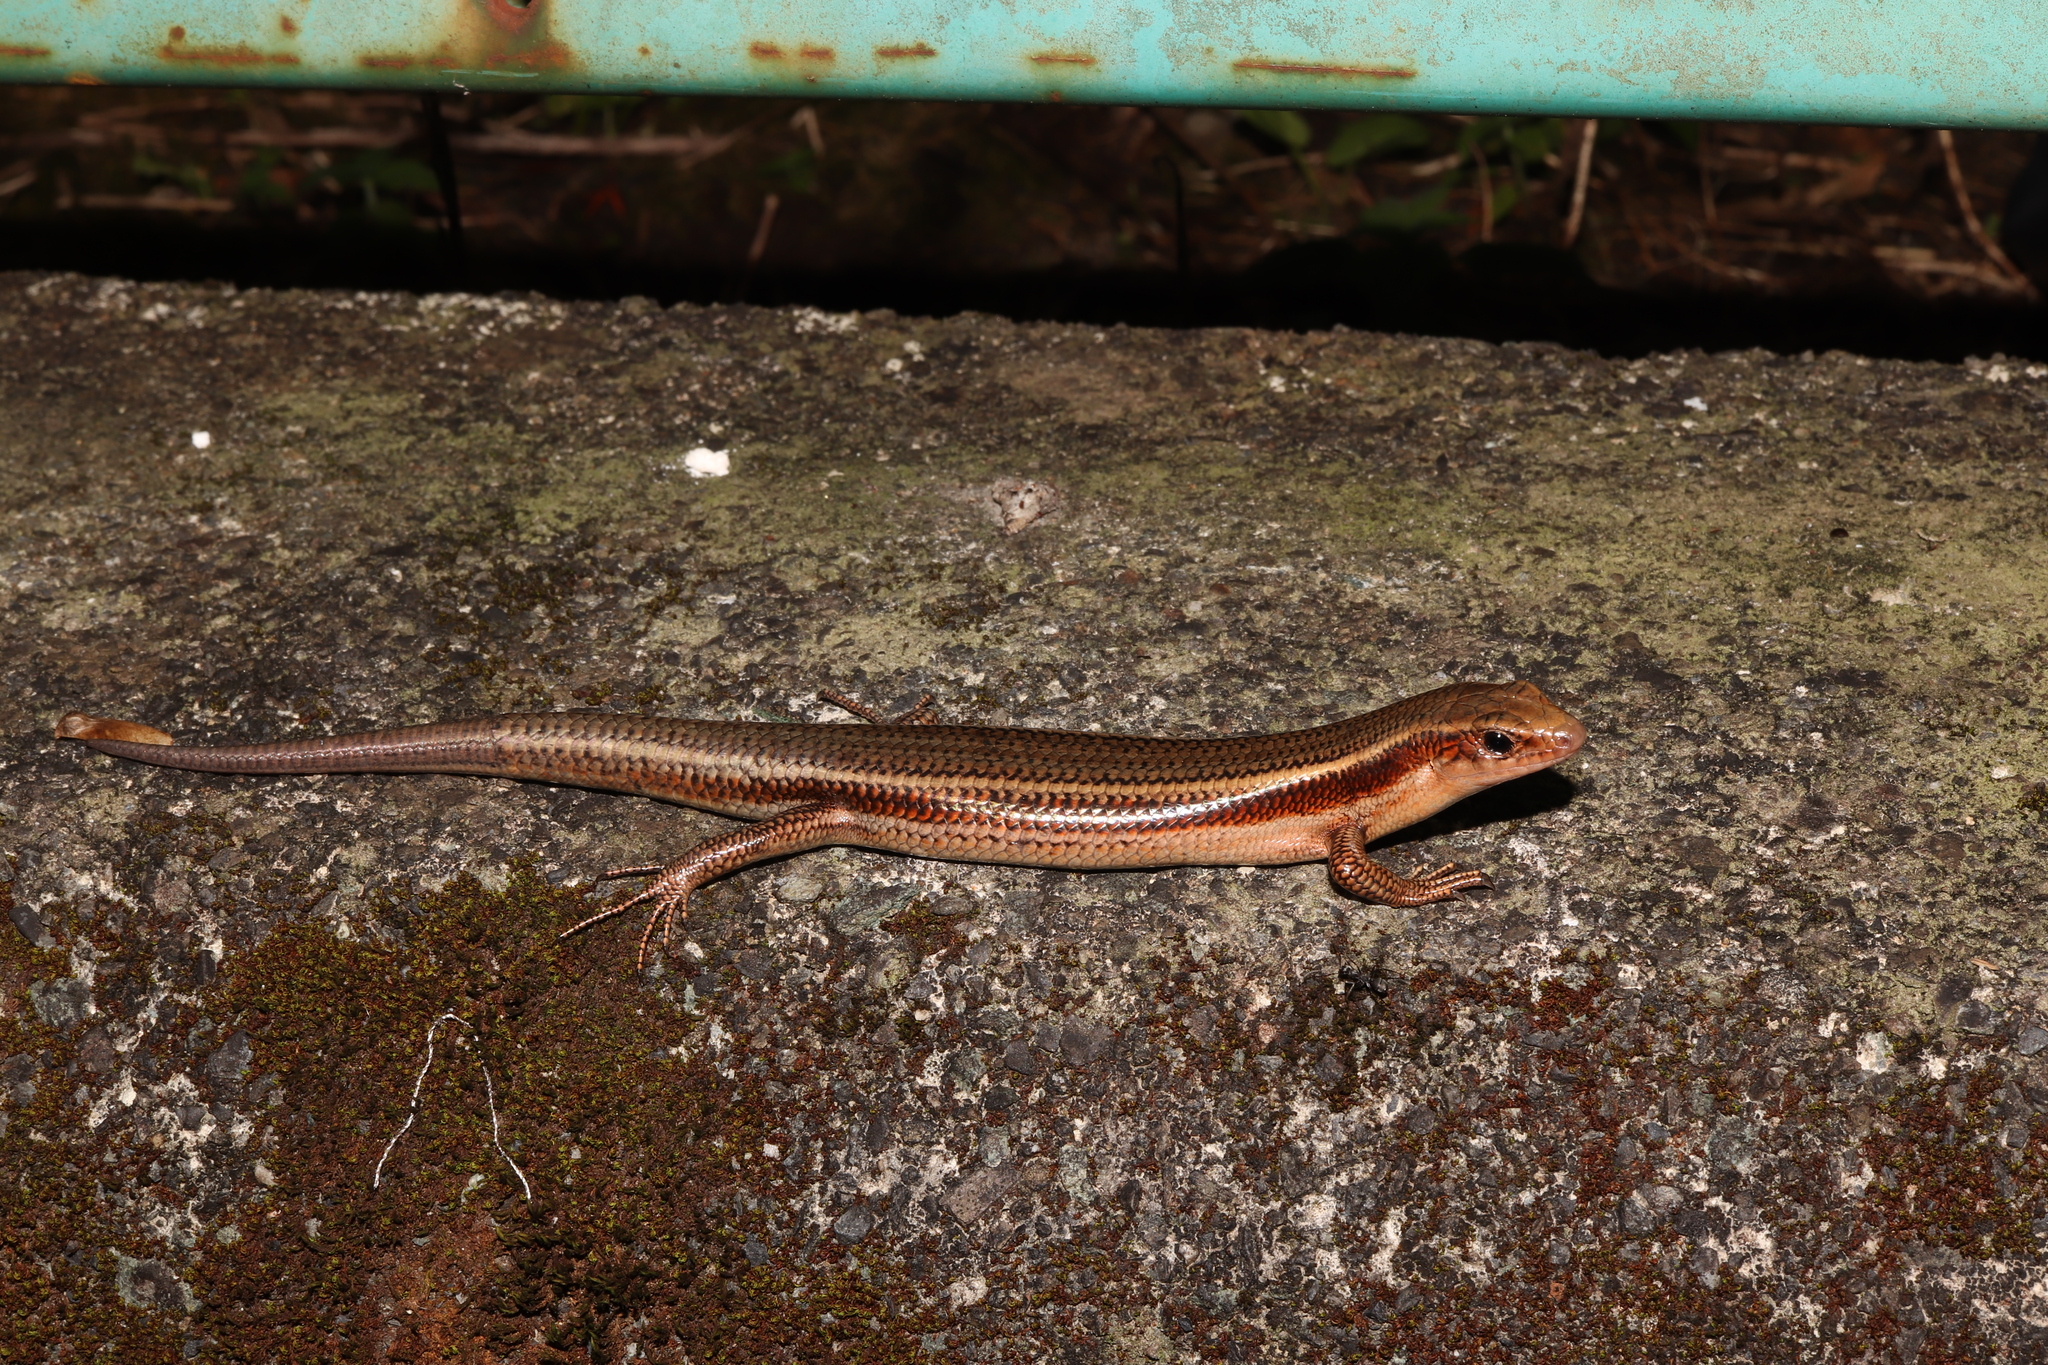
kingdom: Animalia
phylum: Chordata
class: Squamata
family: Scincidae
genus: Plestiodon
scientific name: Plestiodon latiscutatus
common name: Far eastern skink
